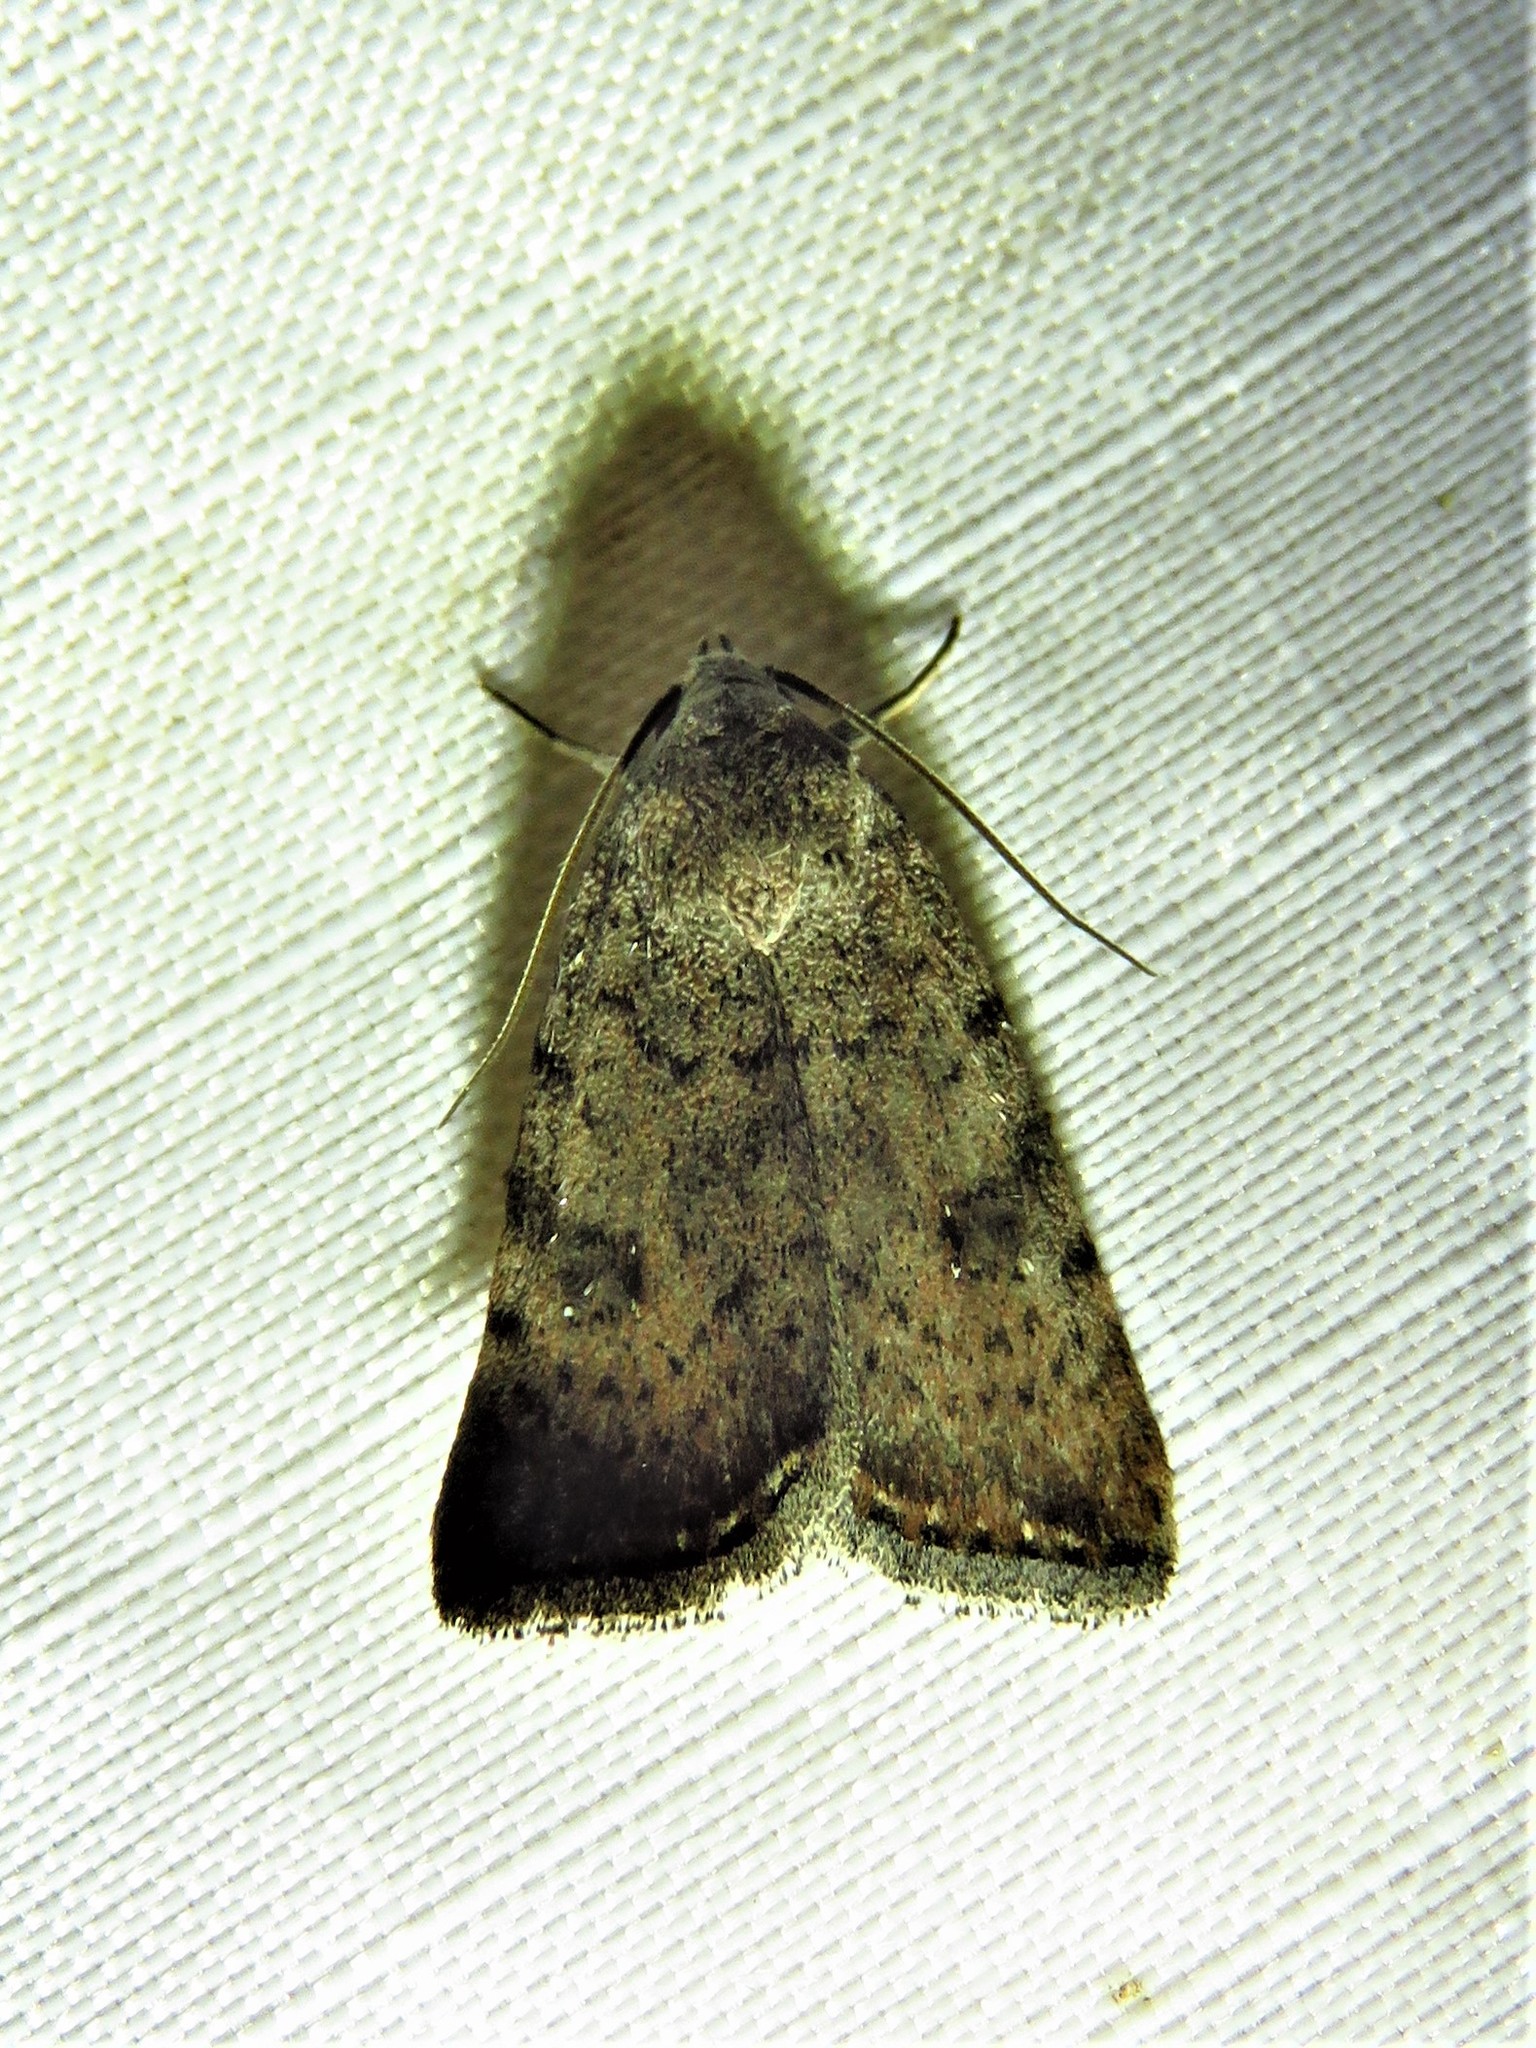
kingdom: Animalia
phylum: Arthropoda
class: Insecta
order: Lepidoptera
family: Noctuidae
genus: Micrathetis
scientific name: Micrathetis triplex
